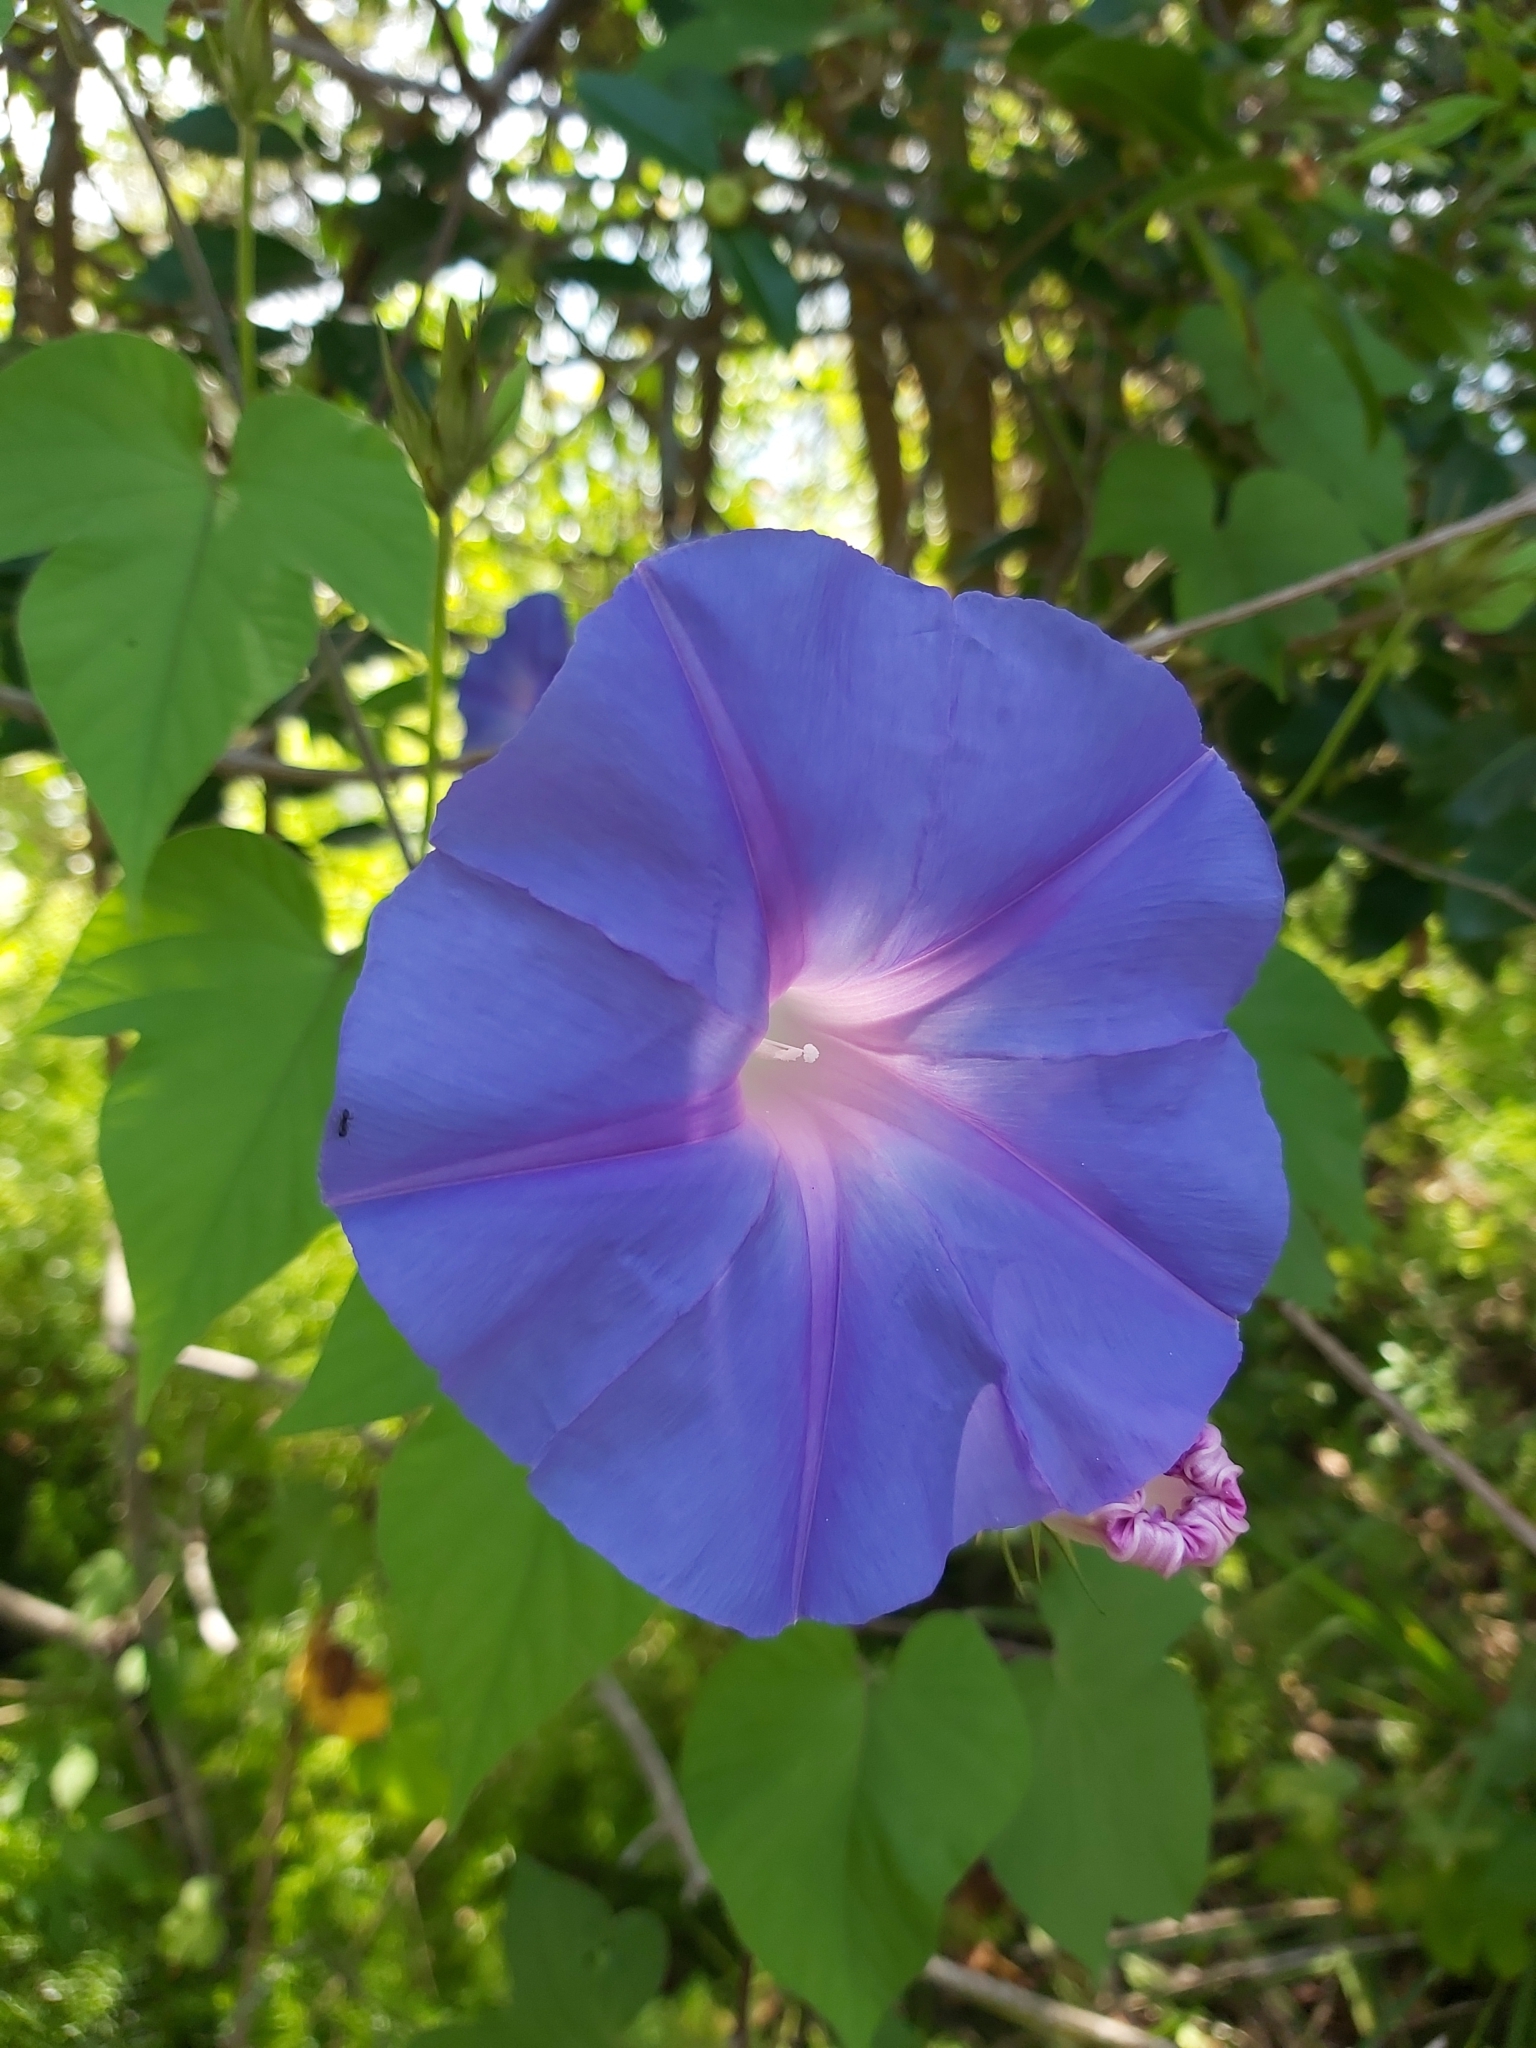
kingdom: Plantae
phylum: Tracheophyta
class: Magnoliopsida
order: Solanales
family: Convolvulaceae
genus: Ipomoea
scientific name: Ipomoea indica
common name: Blue dawnflower
